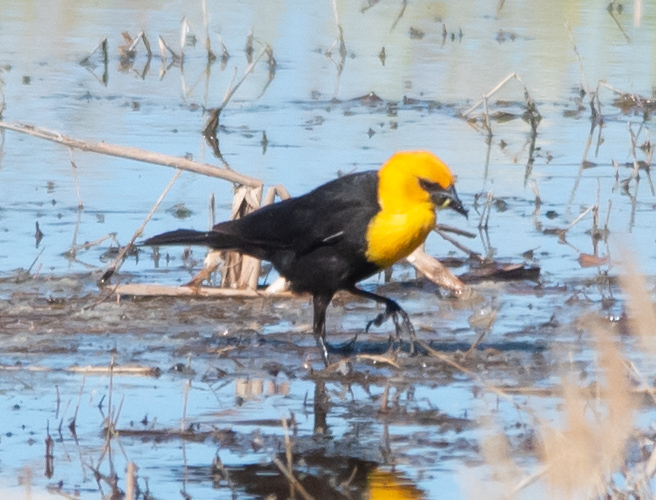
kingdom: Animalia
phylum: Chordata
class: Aves
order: Passeriformes
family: Icteridae
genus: Xanthocephalus
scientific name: Xanthocephalus xanthocephalus
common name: Yellow-headed blackbird
